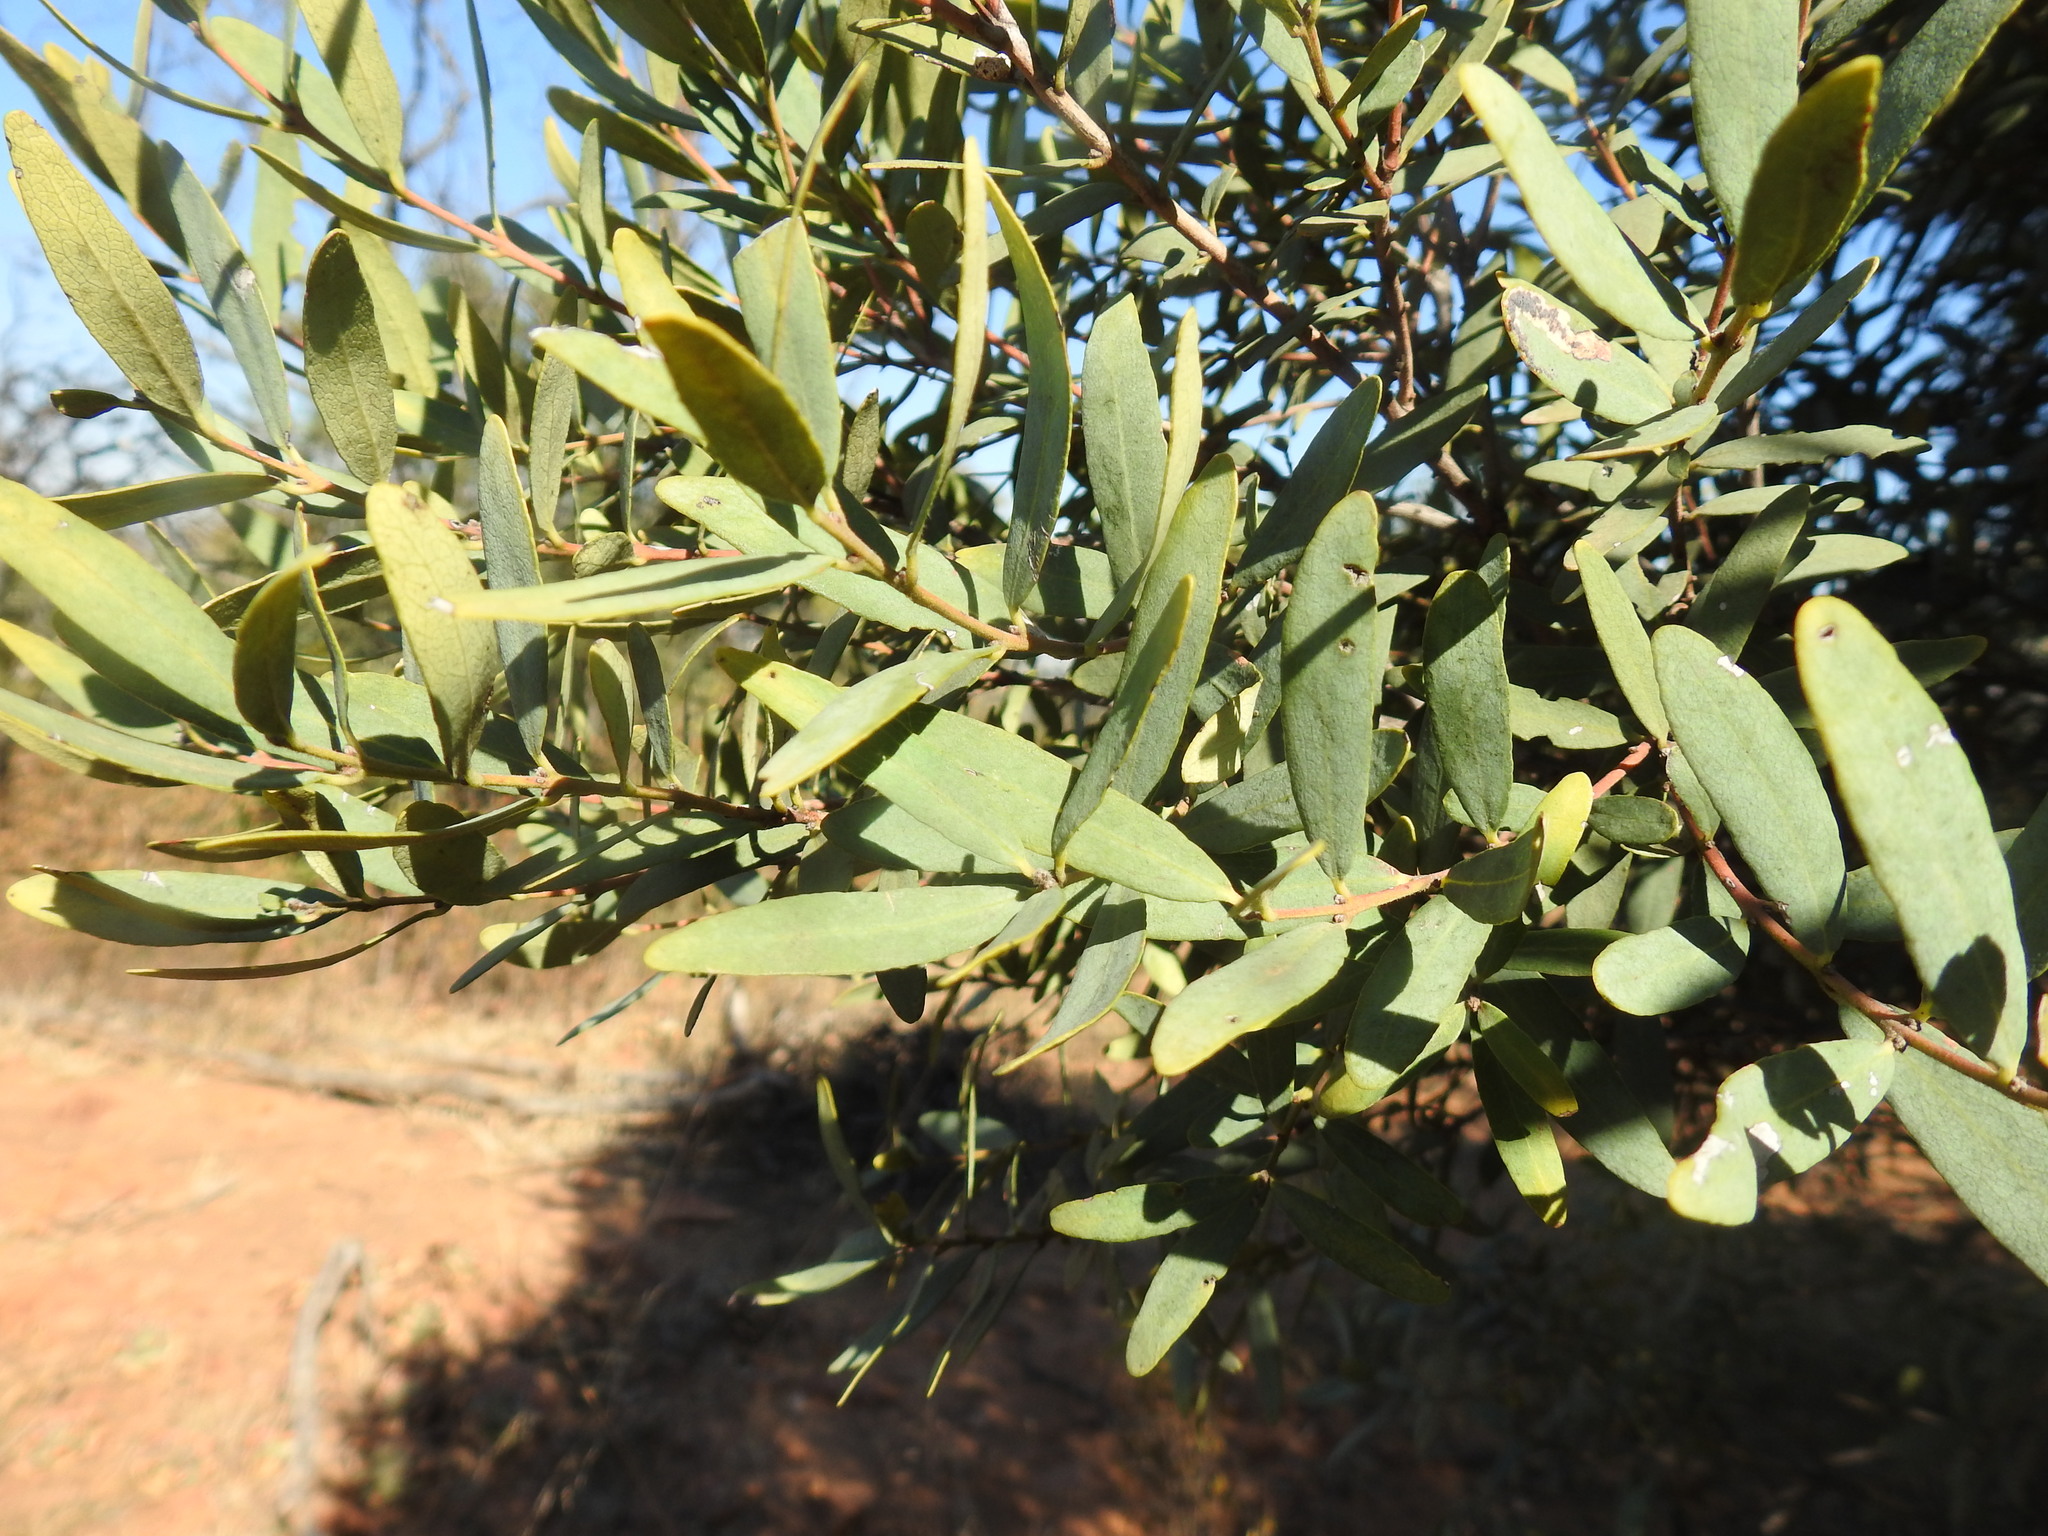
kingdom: Plantae
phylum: Tracheophyta
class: Magnoliopsida
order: Ericales
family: Ebenaceae
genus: Euclea
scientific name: Euclea crispa
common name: Blue guarri
